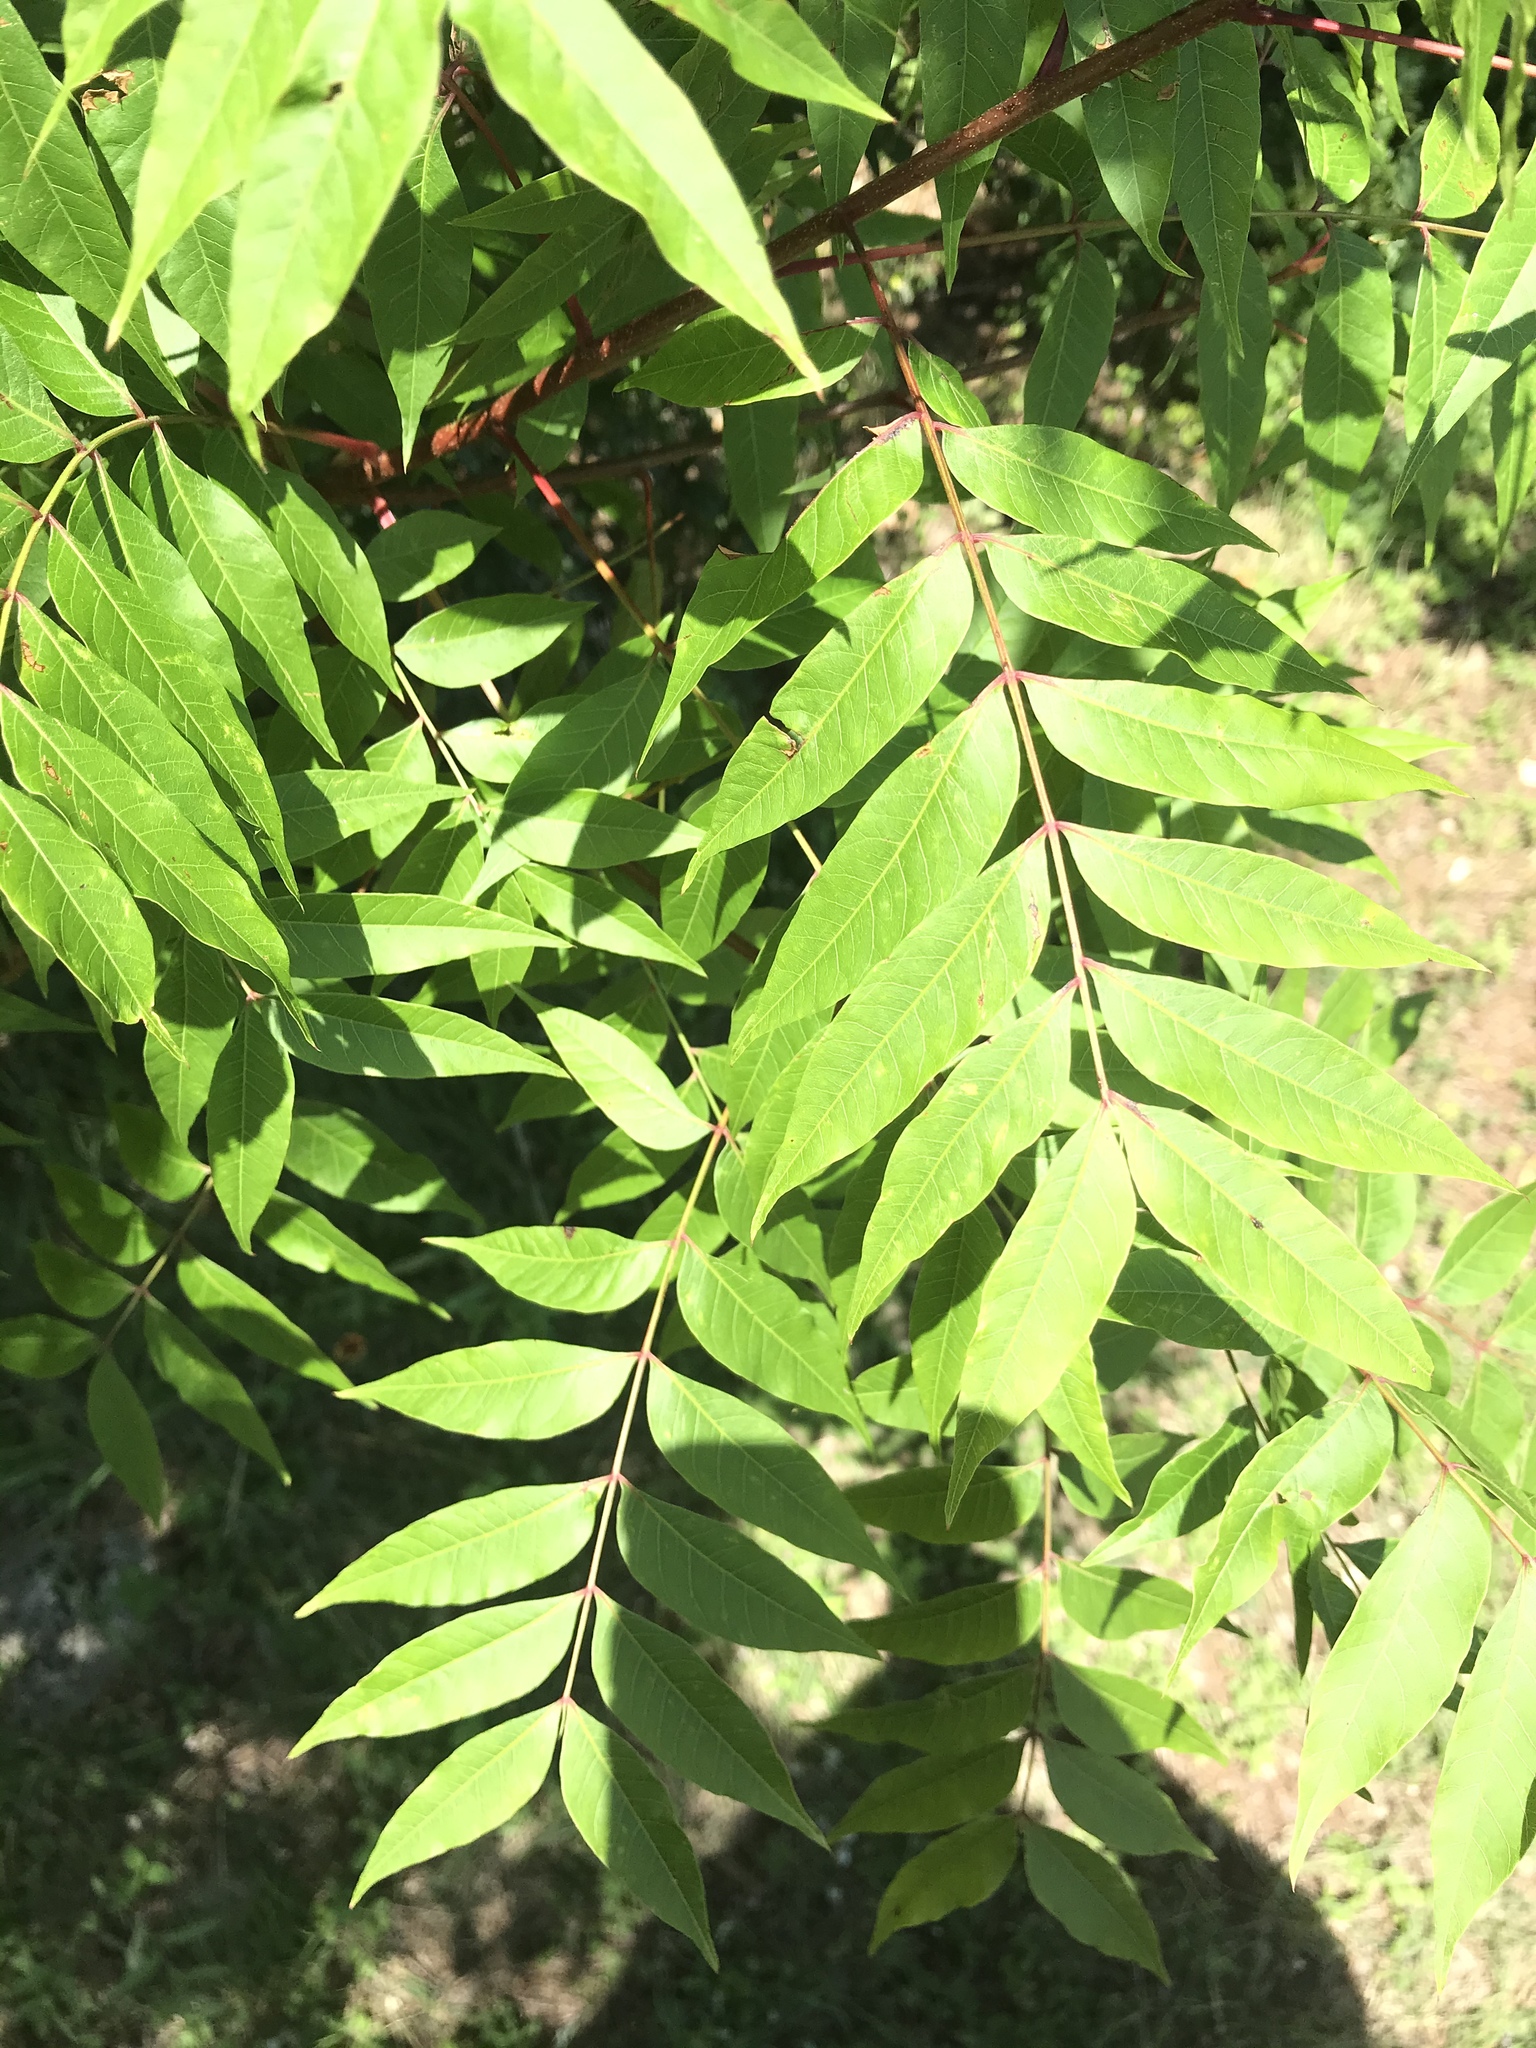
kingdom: Plantae
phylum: Tracheophyta
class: Magnoliopsida
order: Sapindales
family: Anacardiaceae
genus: Pistacia
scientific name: Pistacia chinensis
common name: Chinese pistache
